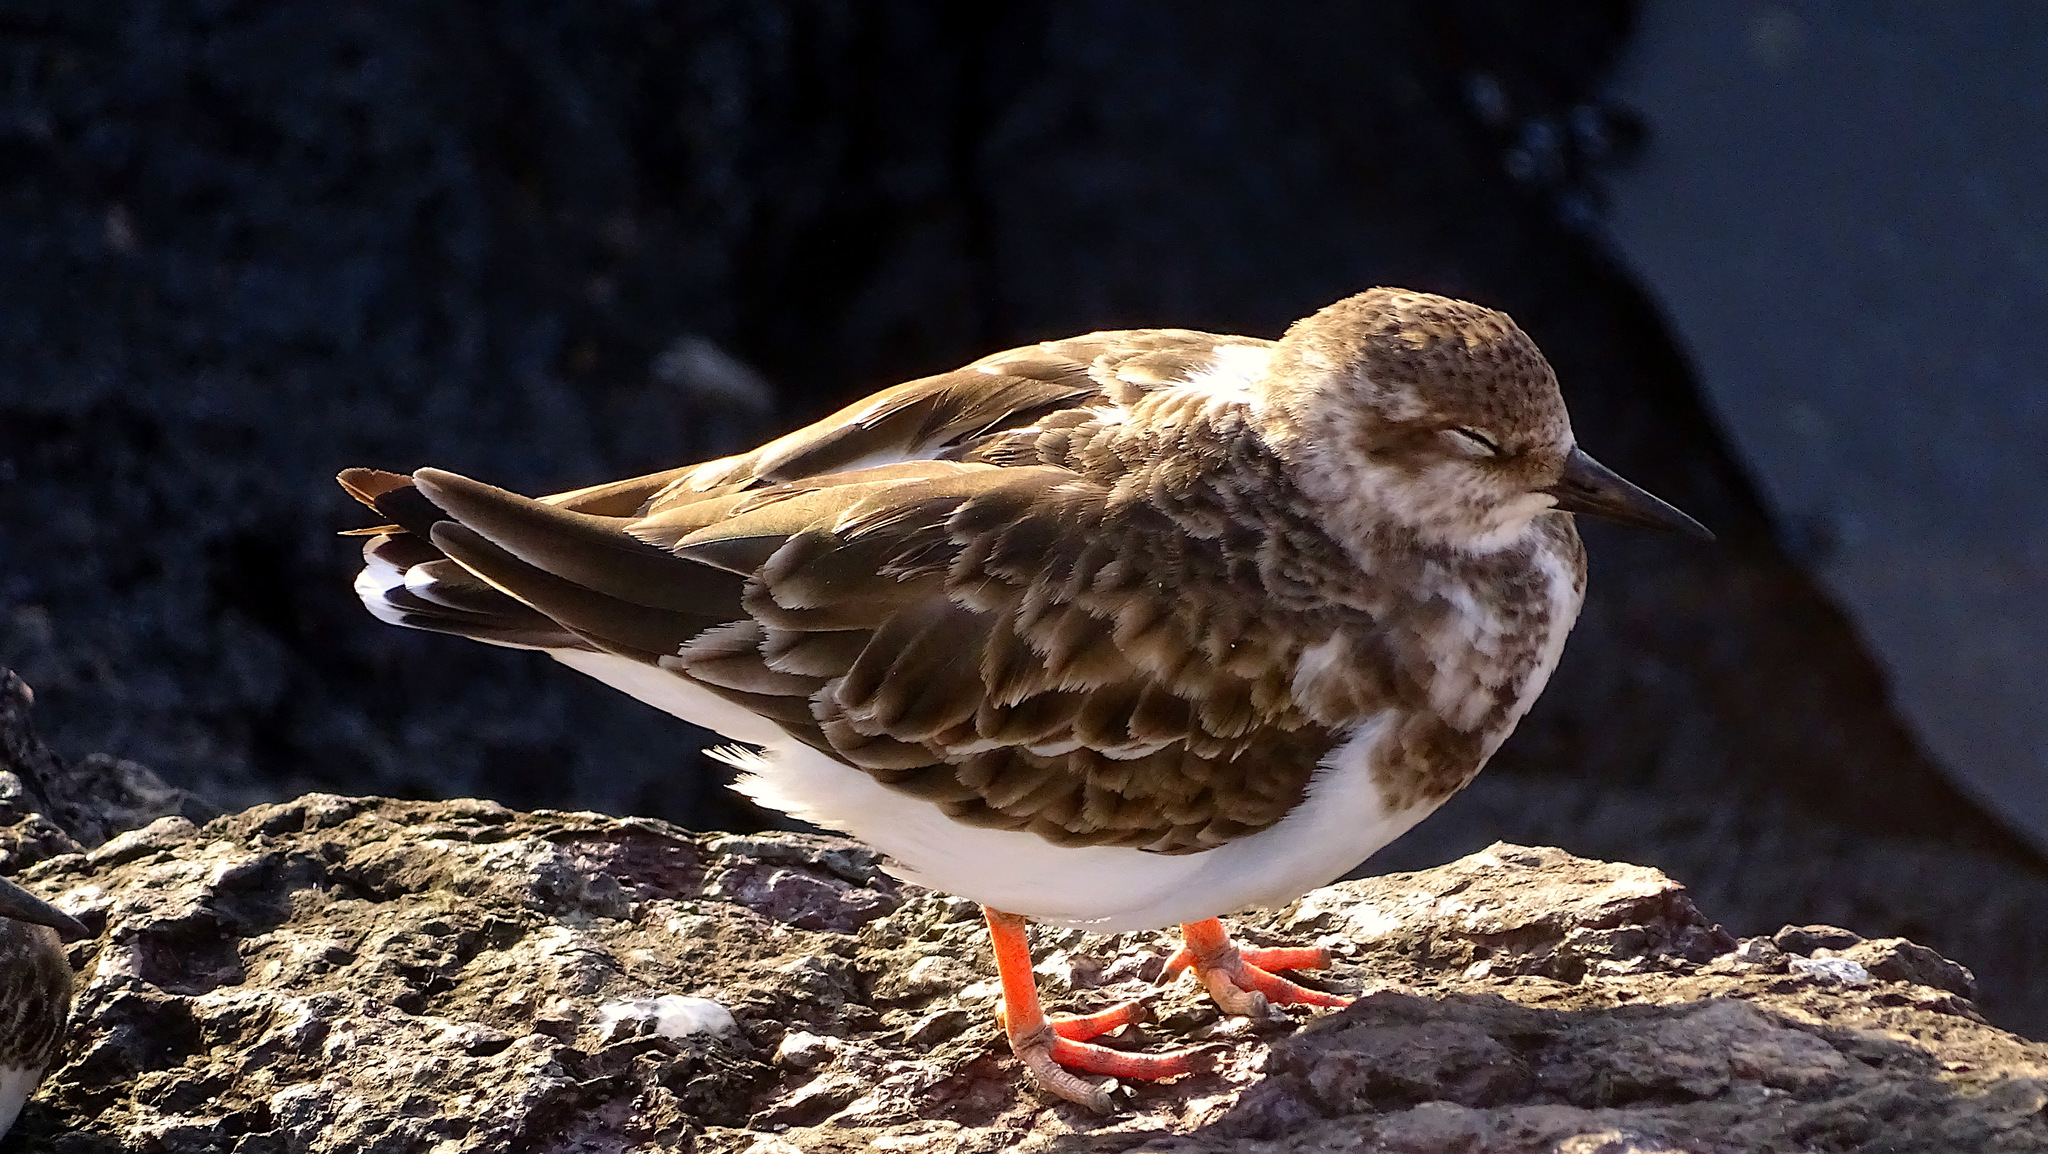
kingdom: Animalia
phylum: Chordata
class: Aves
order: Charadriiformes
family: Scolopacidae
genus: Arenaria
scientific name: Arenaria interpres
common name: Ruddy turnstone
